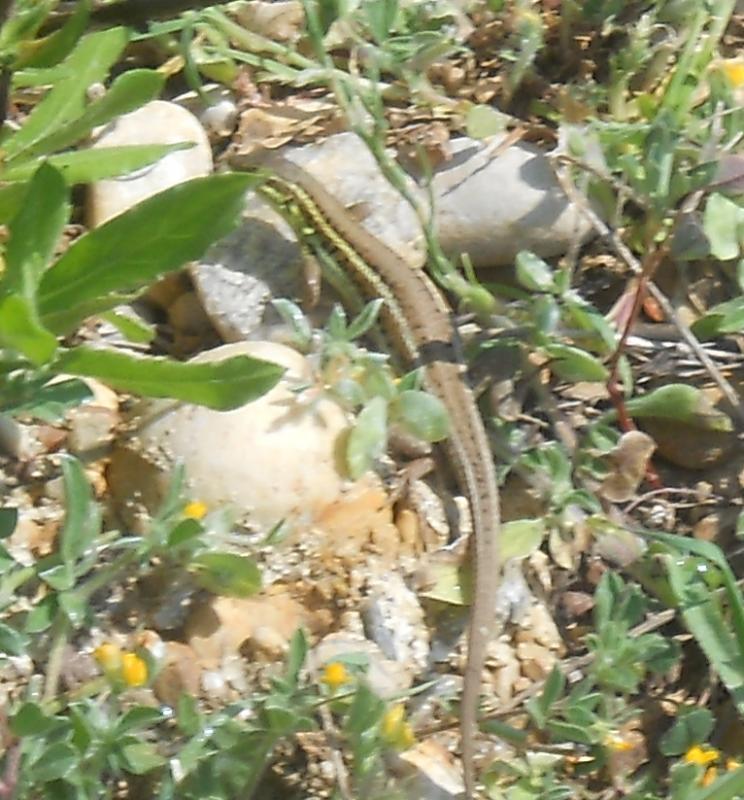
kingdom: Animalia
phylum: Chordata
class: Squamata
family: Lacertidae
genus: Ophisops
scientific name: Ophisops elegans
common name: Snake-eyed lizard
